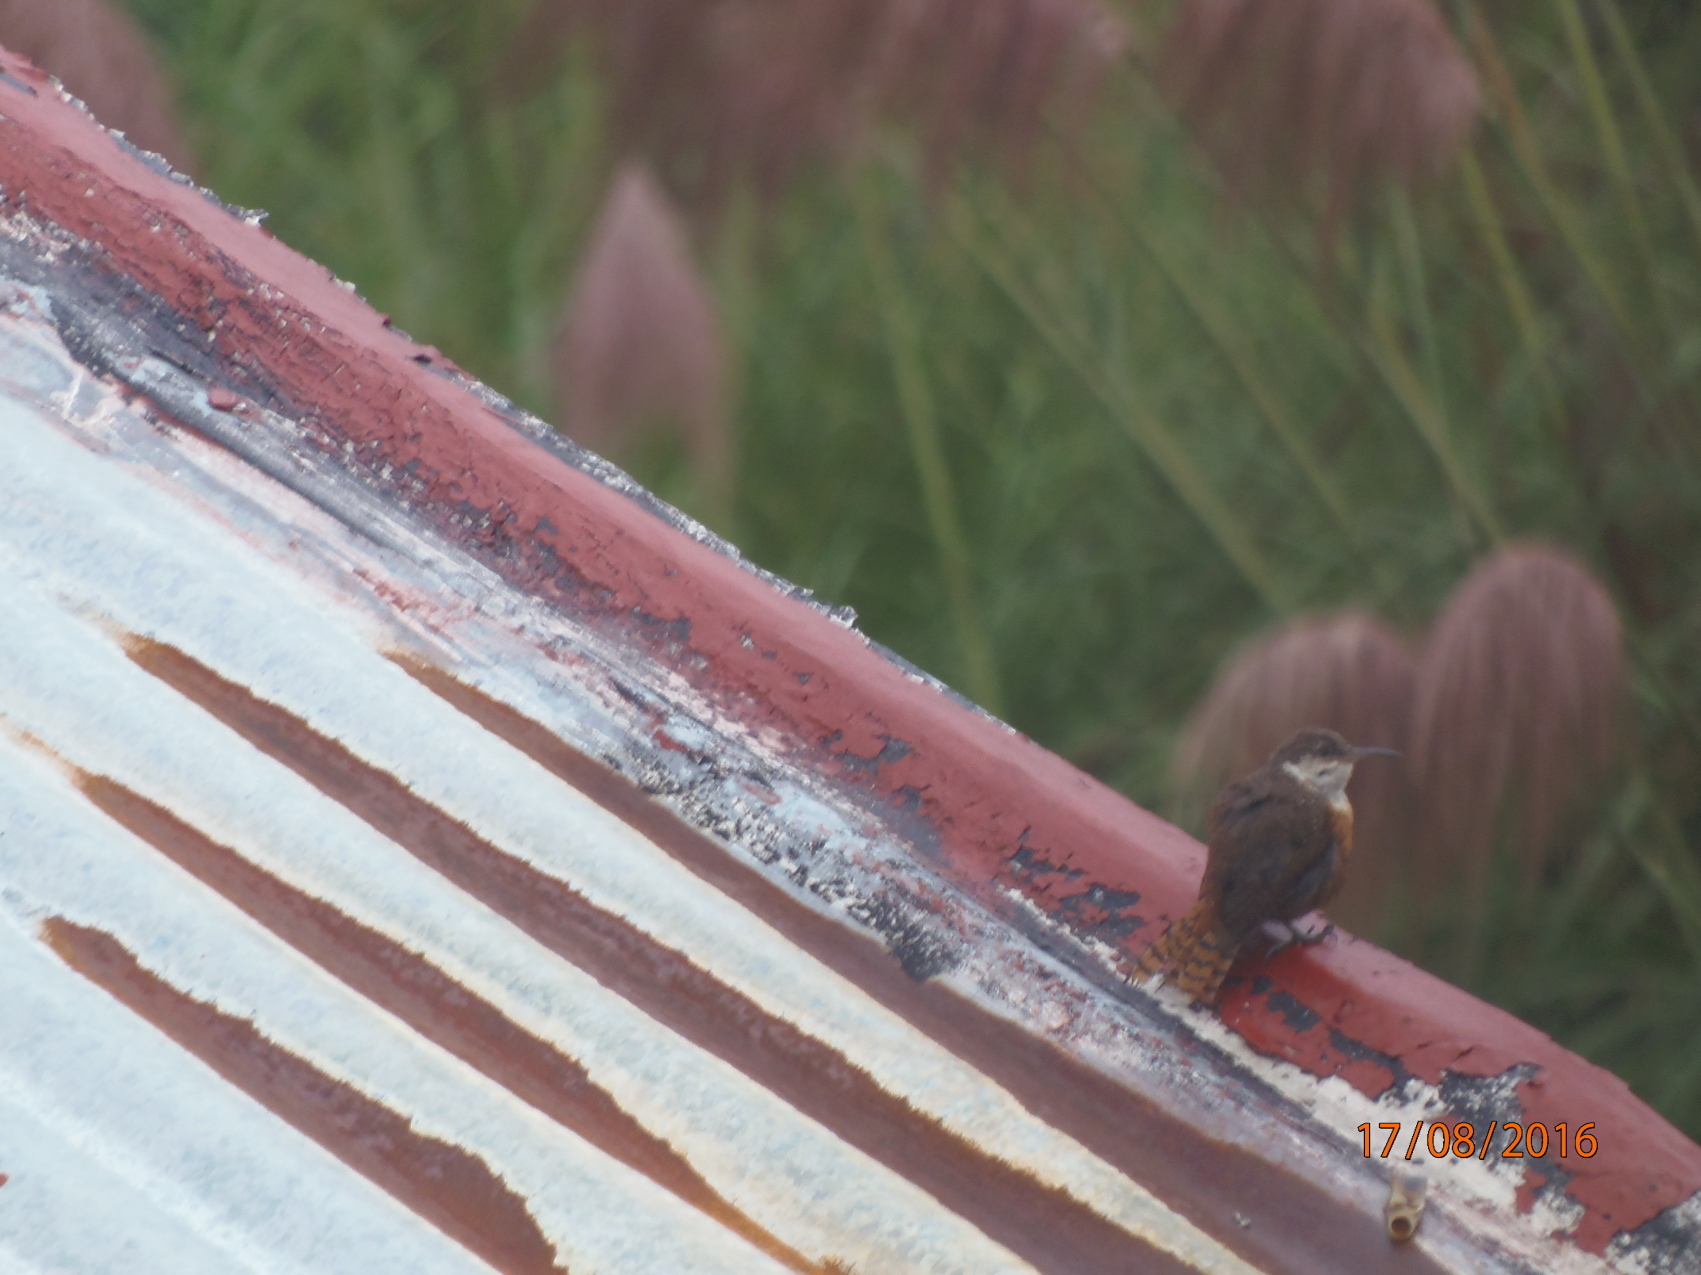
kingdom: Animalia
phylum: Chordata
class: Aves
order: Passeriformes
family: Troglodytidae
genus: Catherpes
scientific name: Catherpes mexicanus
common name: Canyon wren
